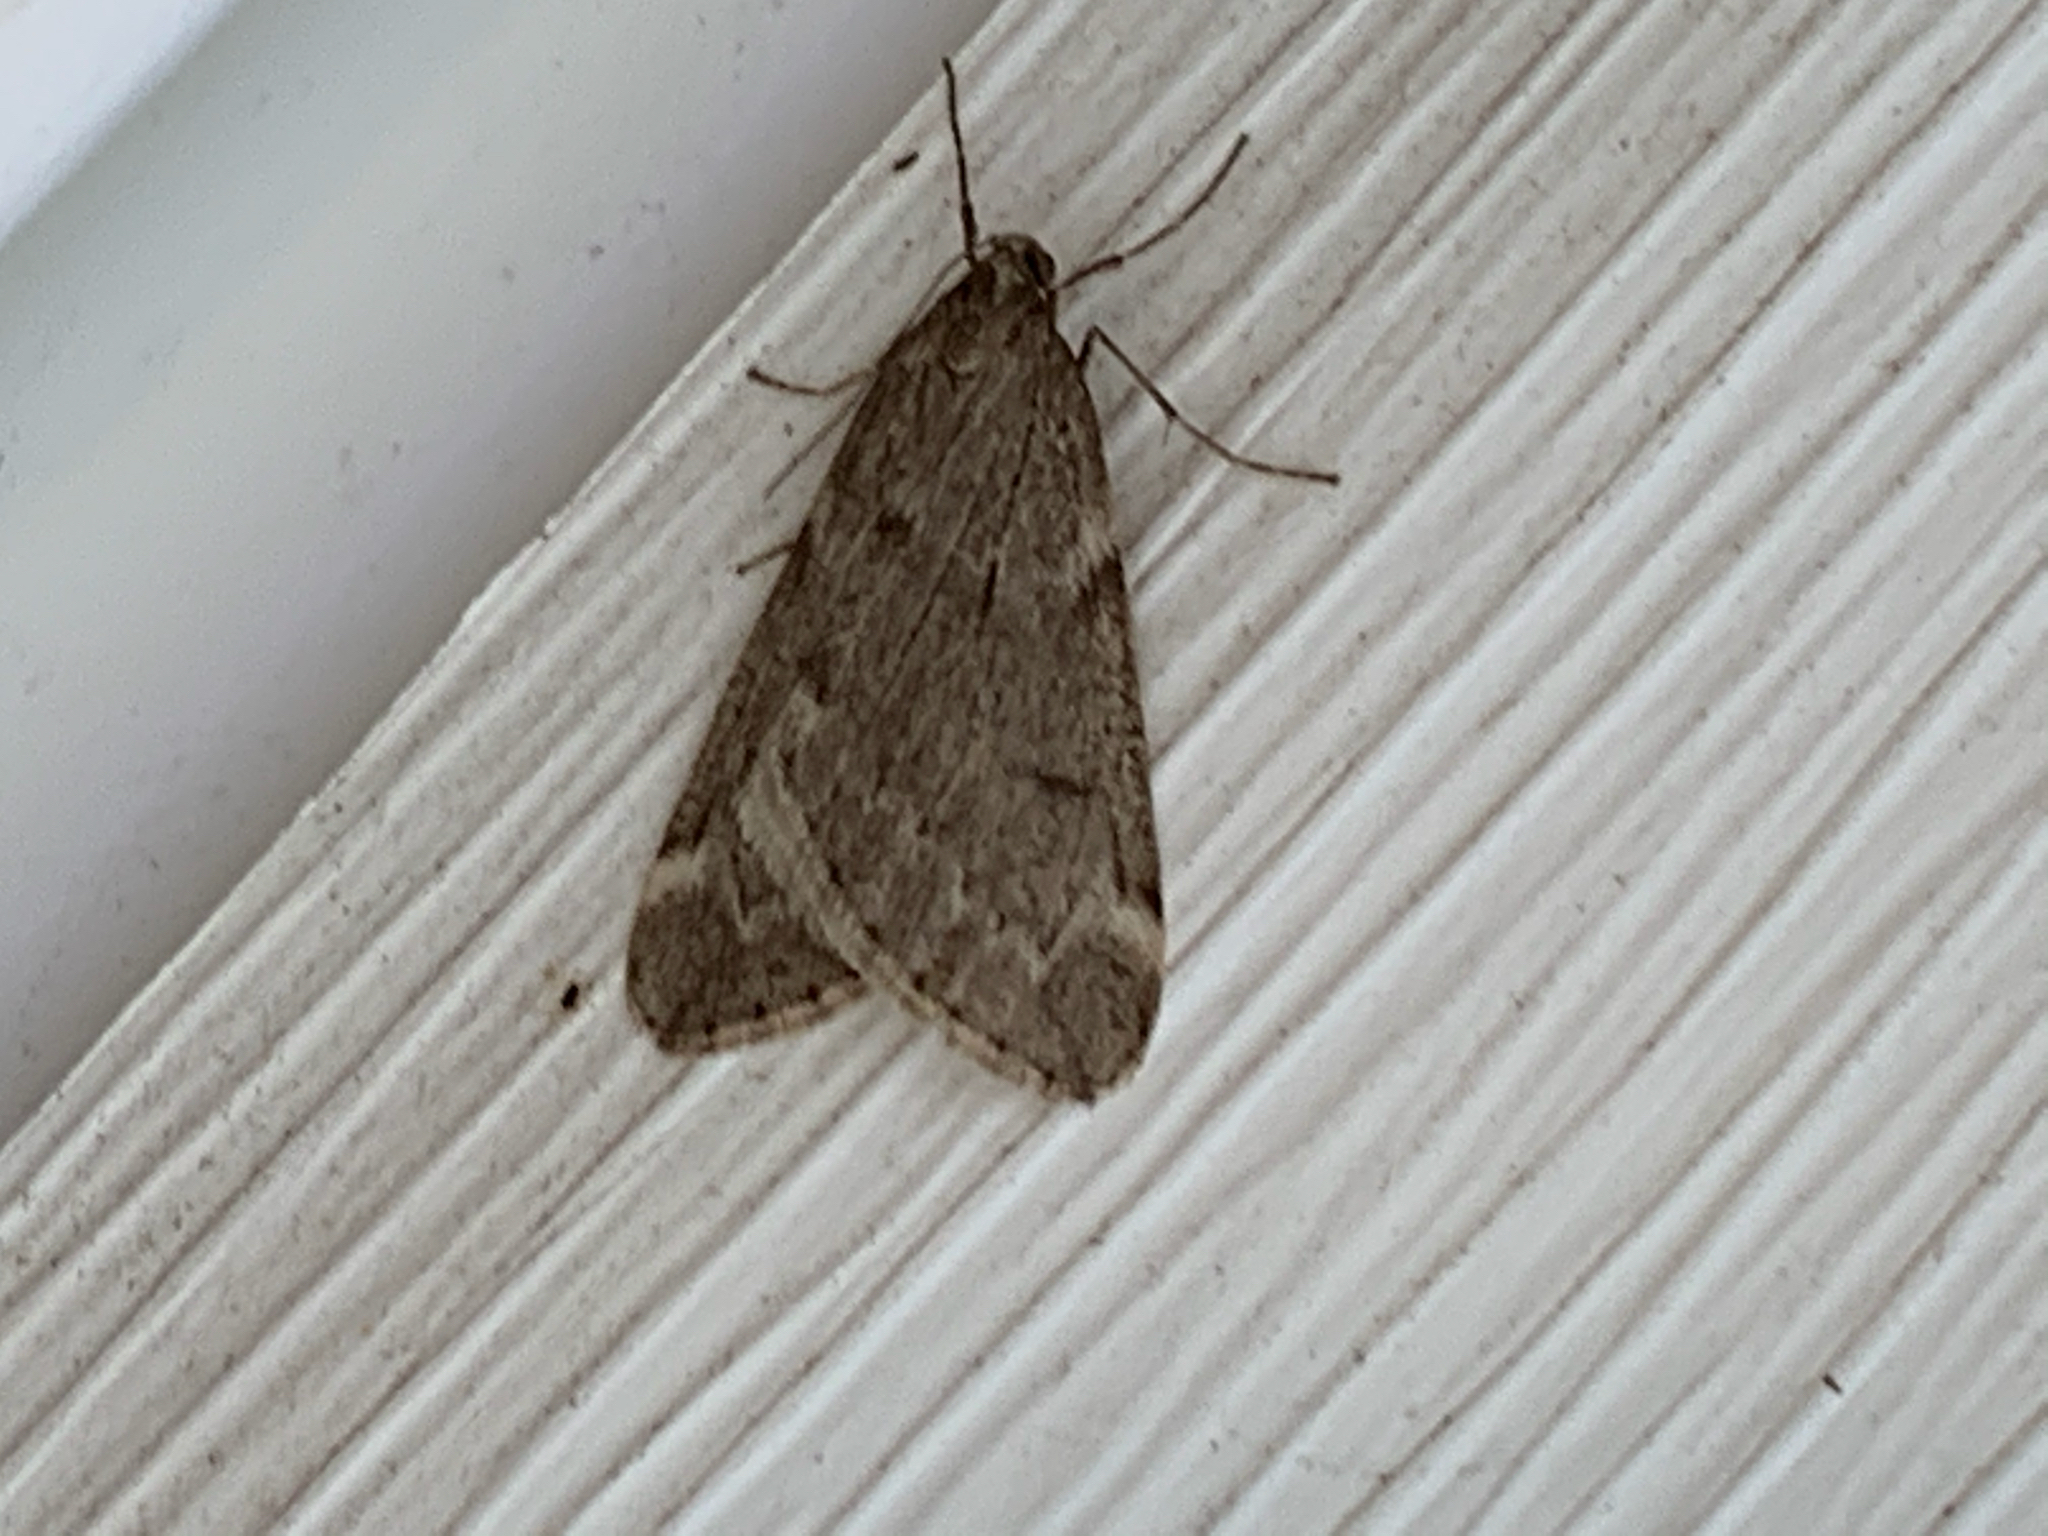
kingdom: Animalia
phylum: Arthropoda
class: Insecta
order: Lepidoptera
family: Geometridae
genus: Alsophila
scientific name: Alsophila pometaria
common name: Fall cankerworm
